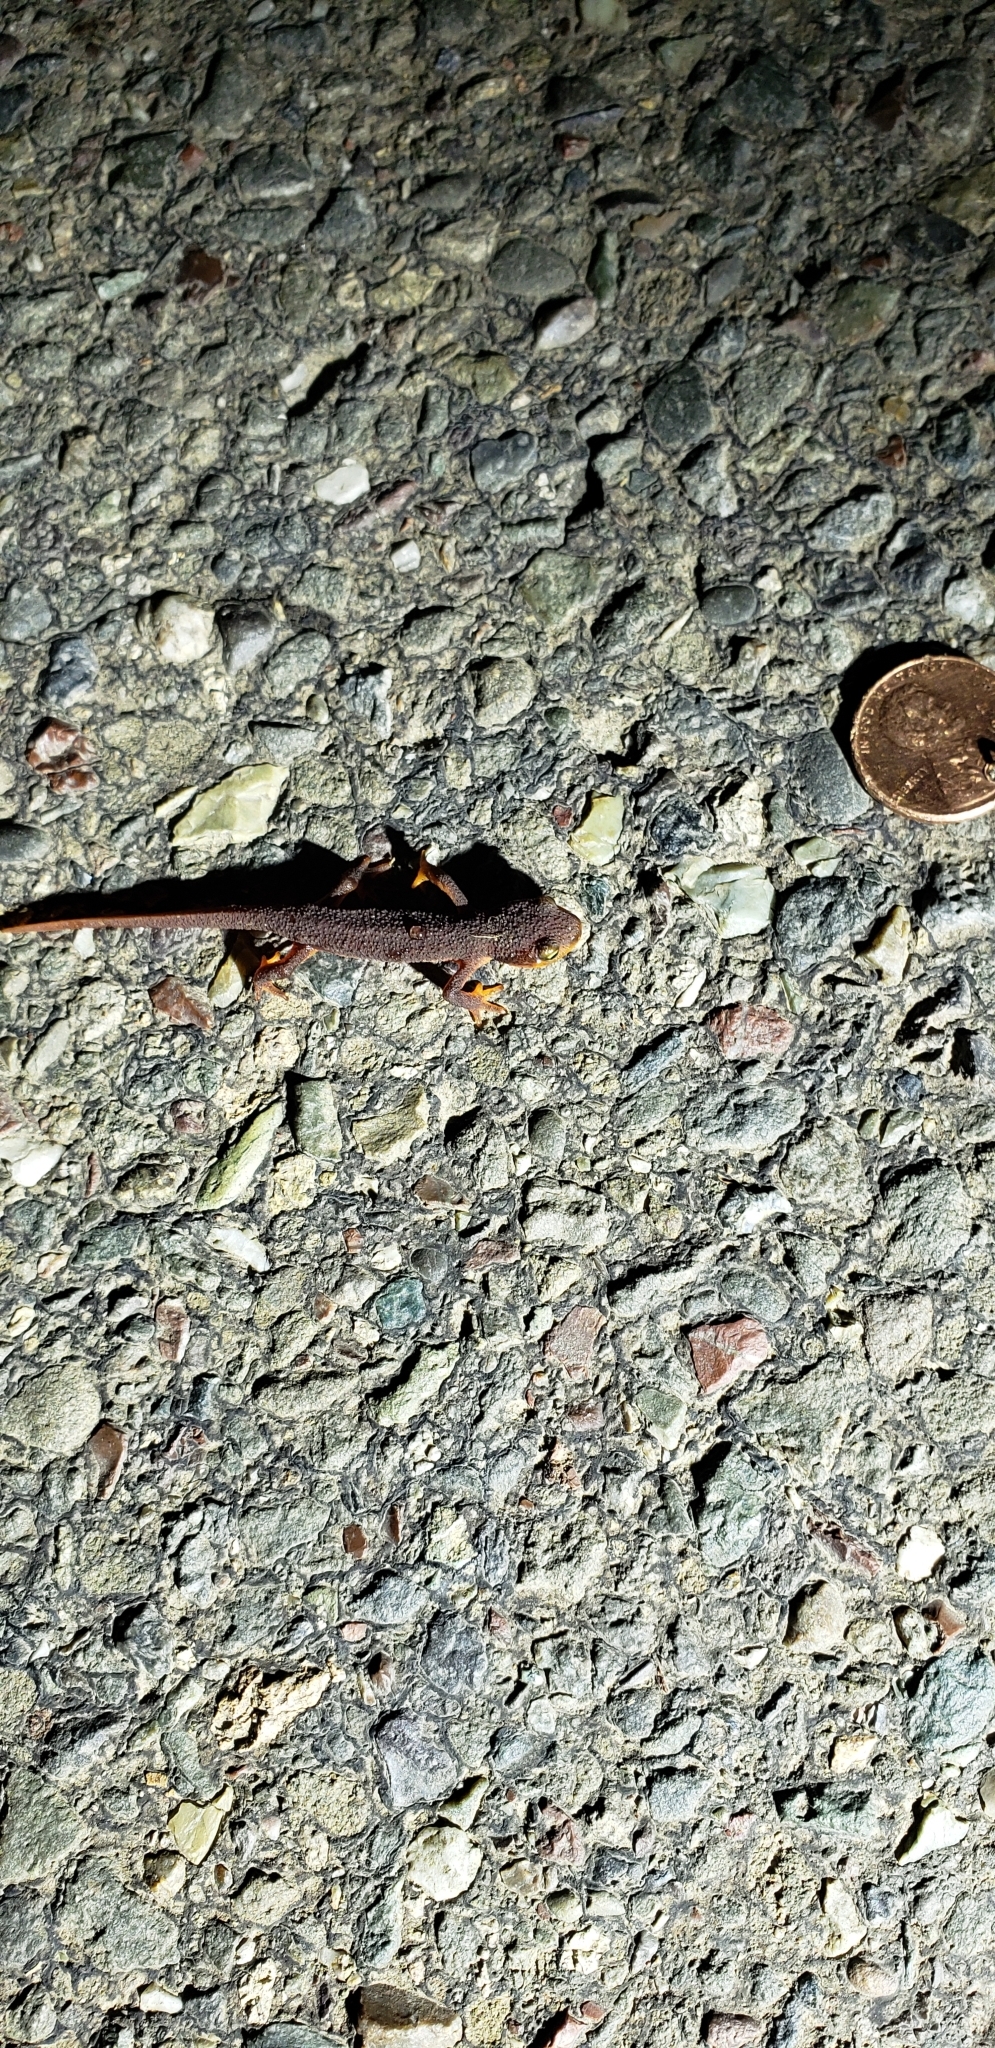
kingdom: Animalia
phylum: Chordata
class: Amphibia
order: Caudata
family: Salamandridae
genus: Taricha
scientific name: Taricha torosa
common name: California newt
